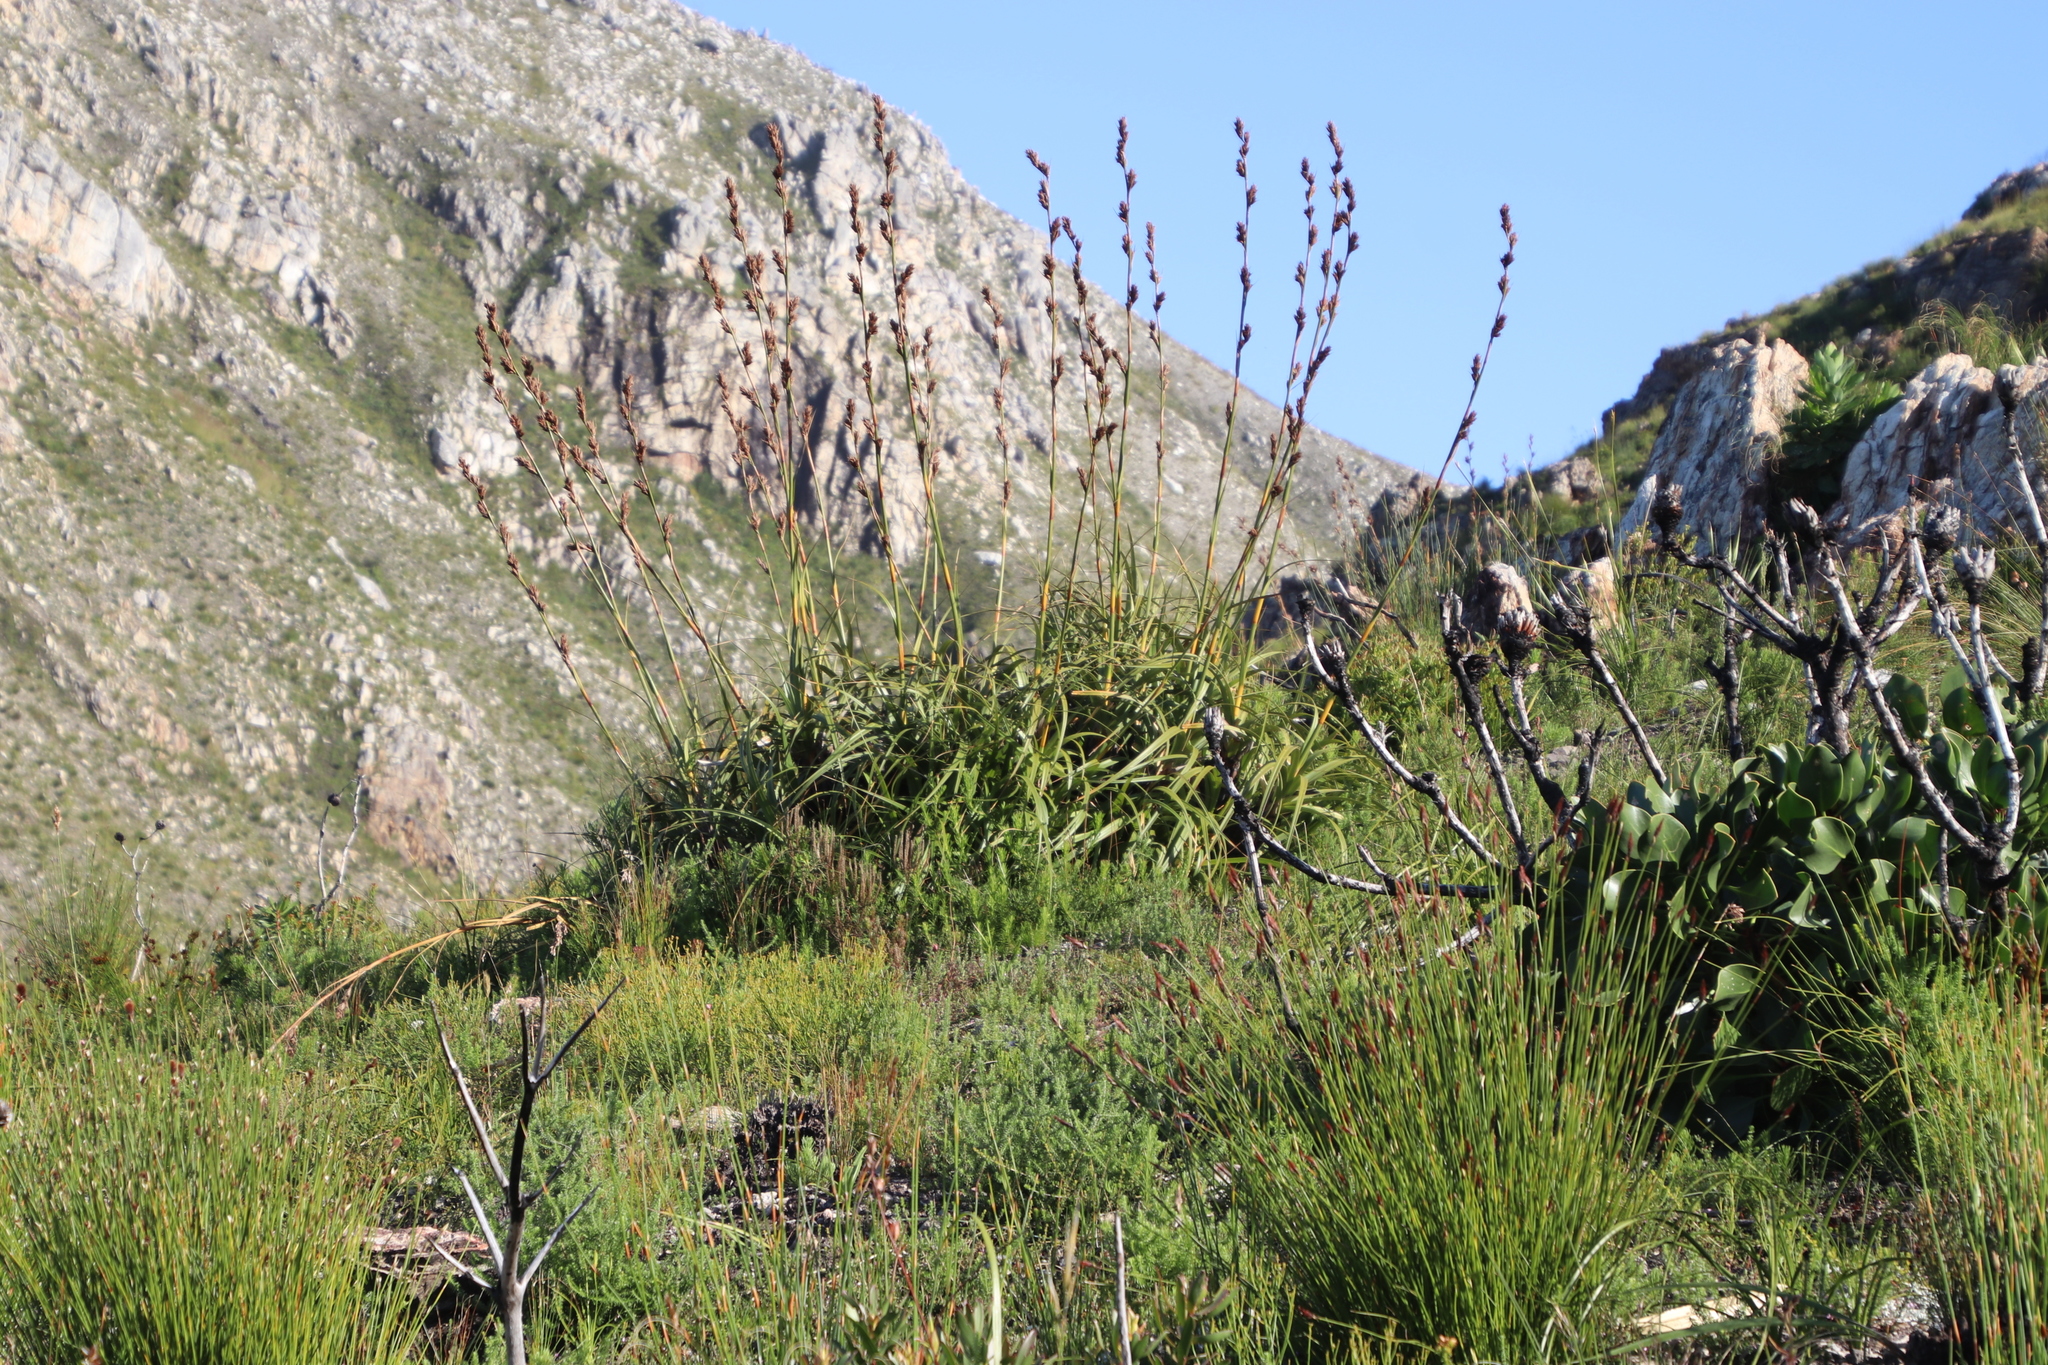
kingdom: Plantae
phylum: Tracheophyta
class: Liliopsida
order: Poales
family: Cyperaceae
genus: Tetraria
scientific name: Tetraria thermalis
